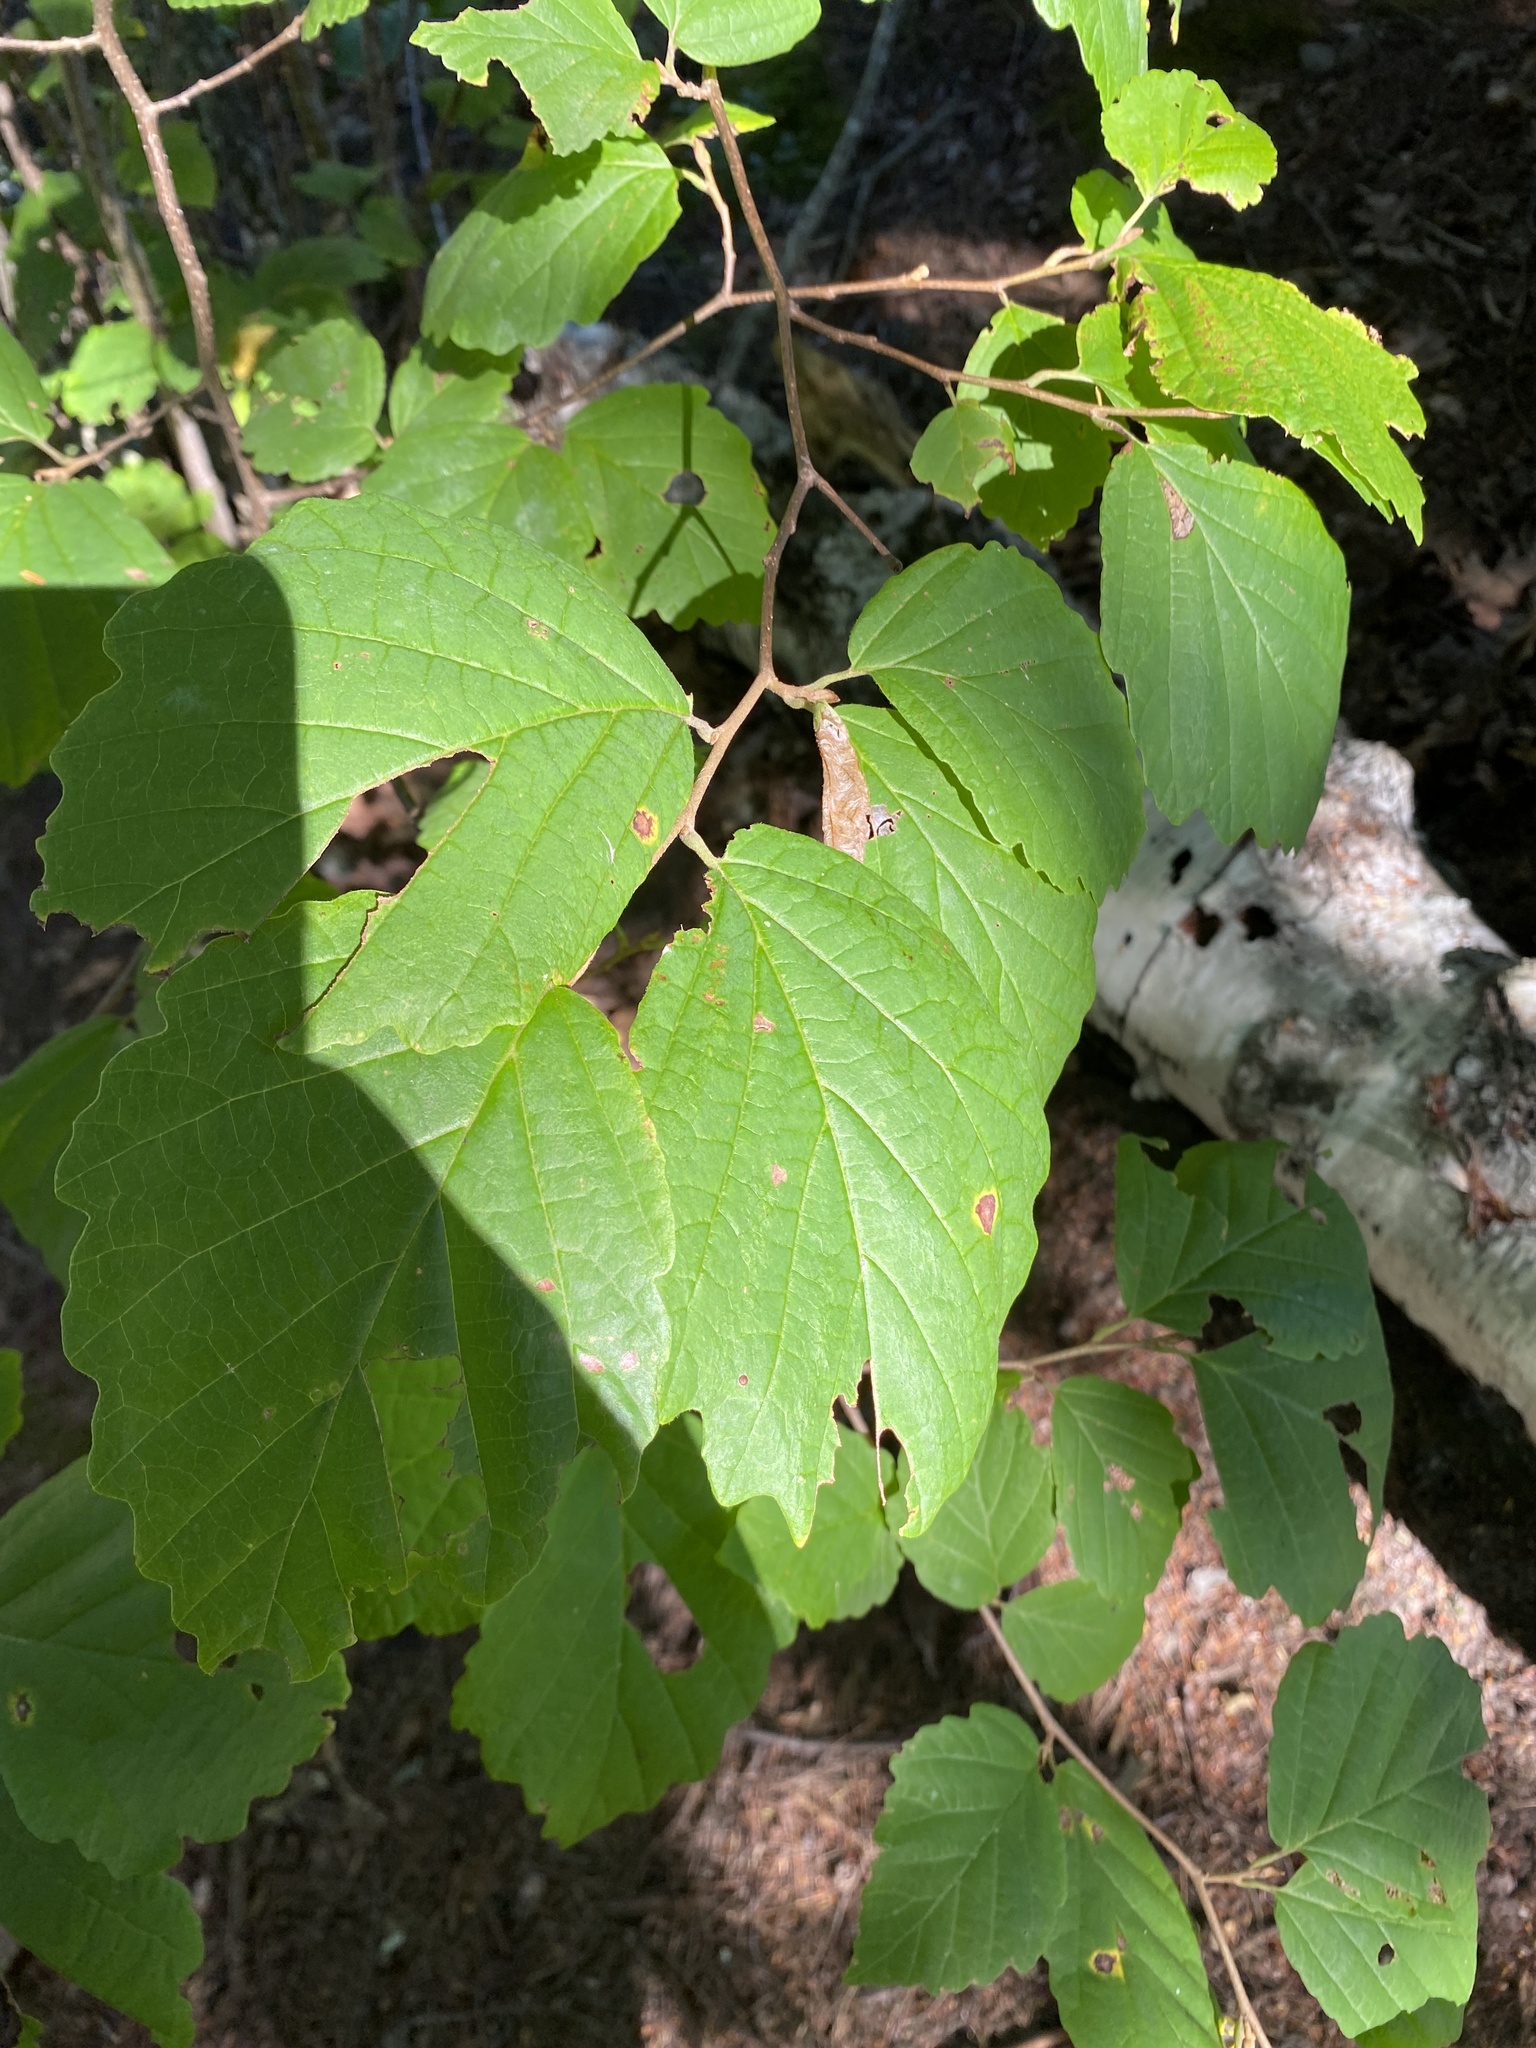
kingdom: Plantae
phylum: Tracheophyta
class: Magnoliopsida
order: Saxifragales
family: Hamamelidaceae
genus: Hamamelis
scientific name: Hamamelis virginiana
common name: Witch-hazel
